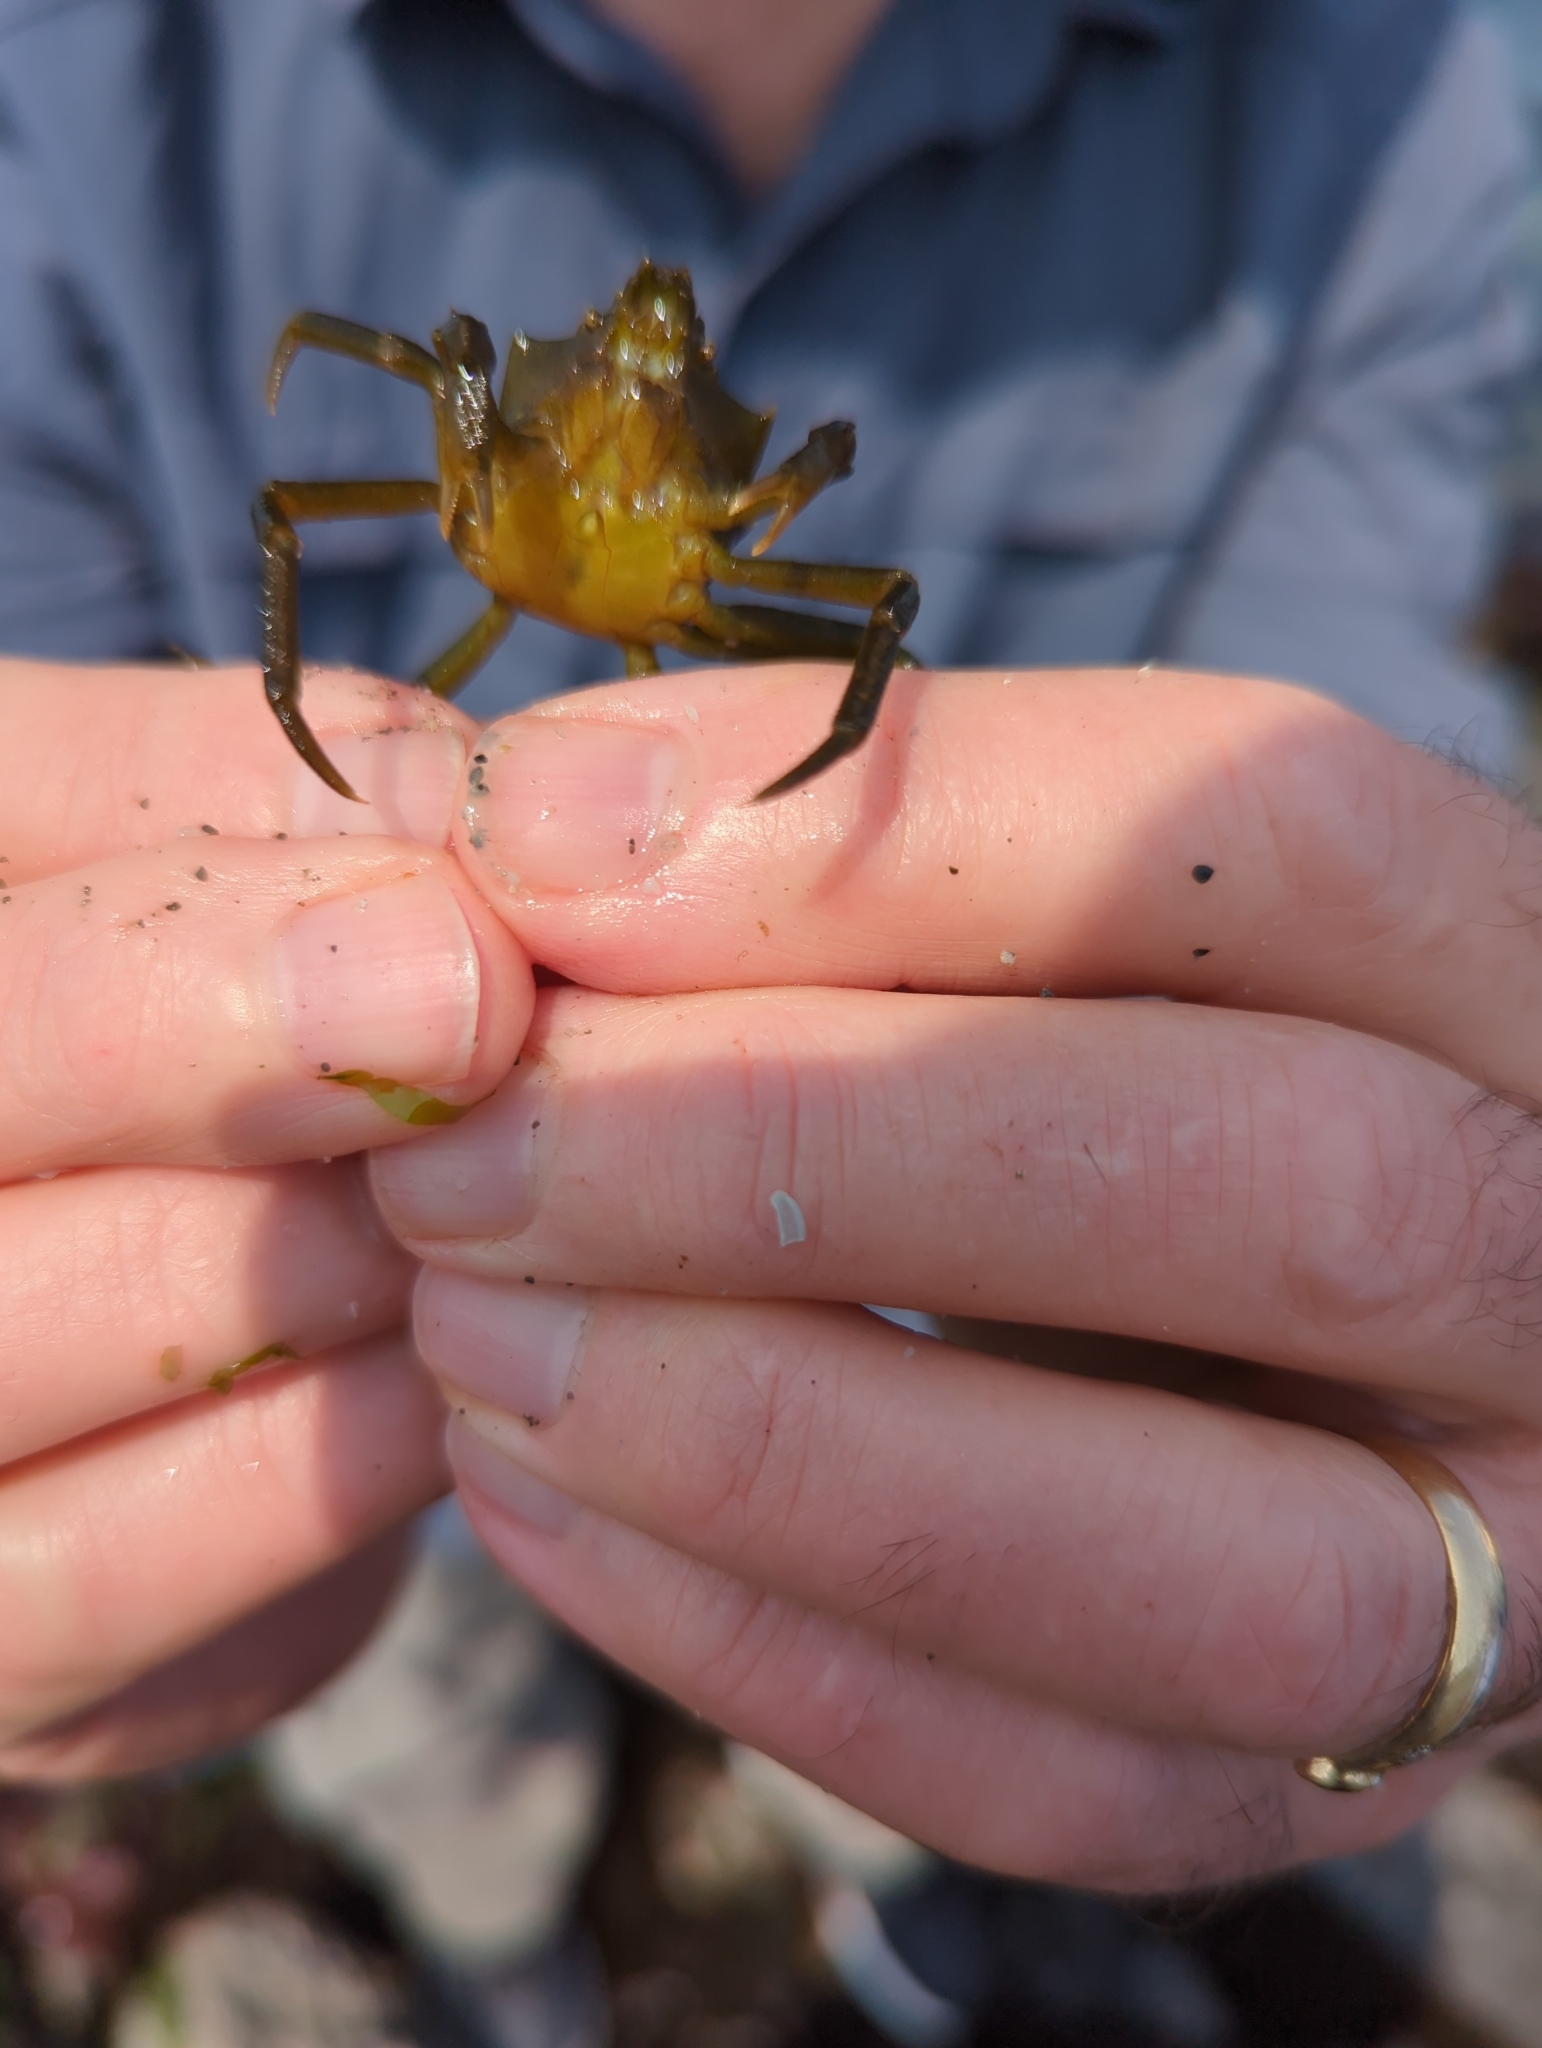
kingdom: Animalia
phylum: Arthropoda
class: Malacostraca
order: Decapoda
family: Epialtidae
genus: Pugettia
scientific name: Pugettia producta
